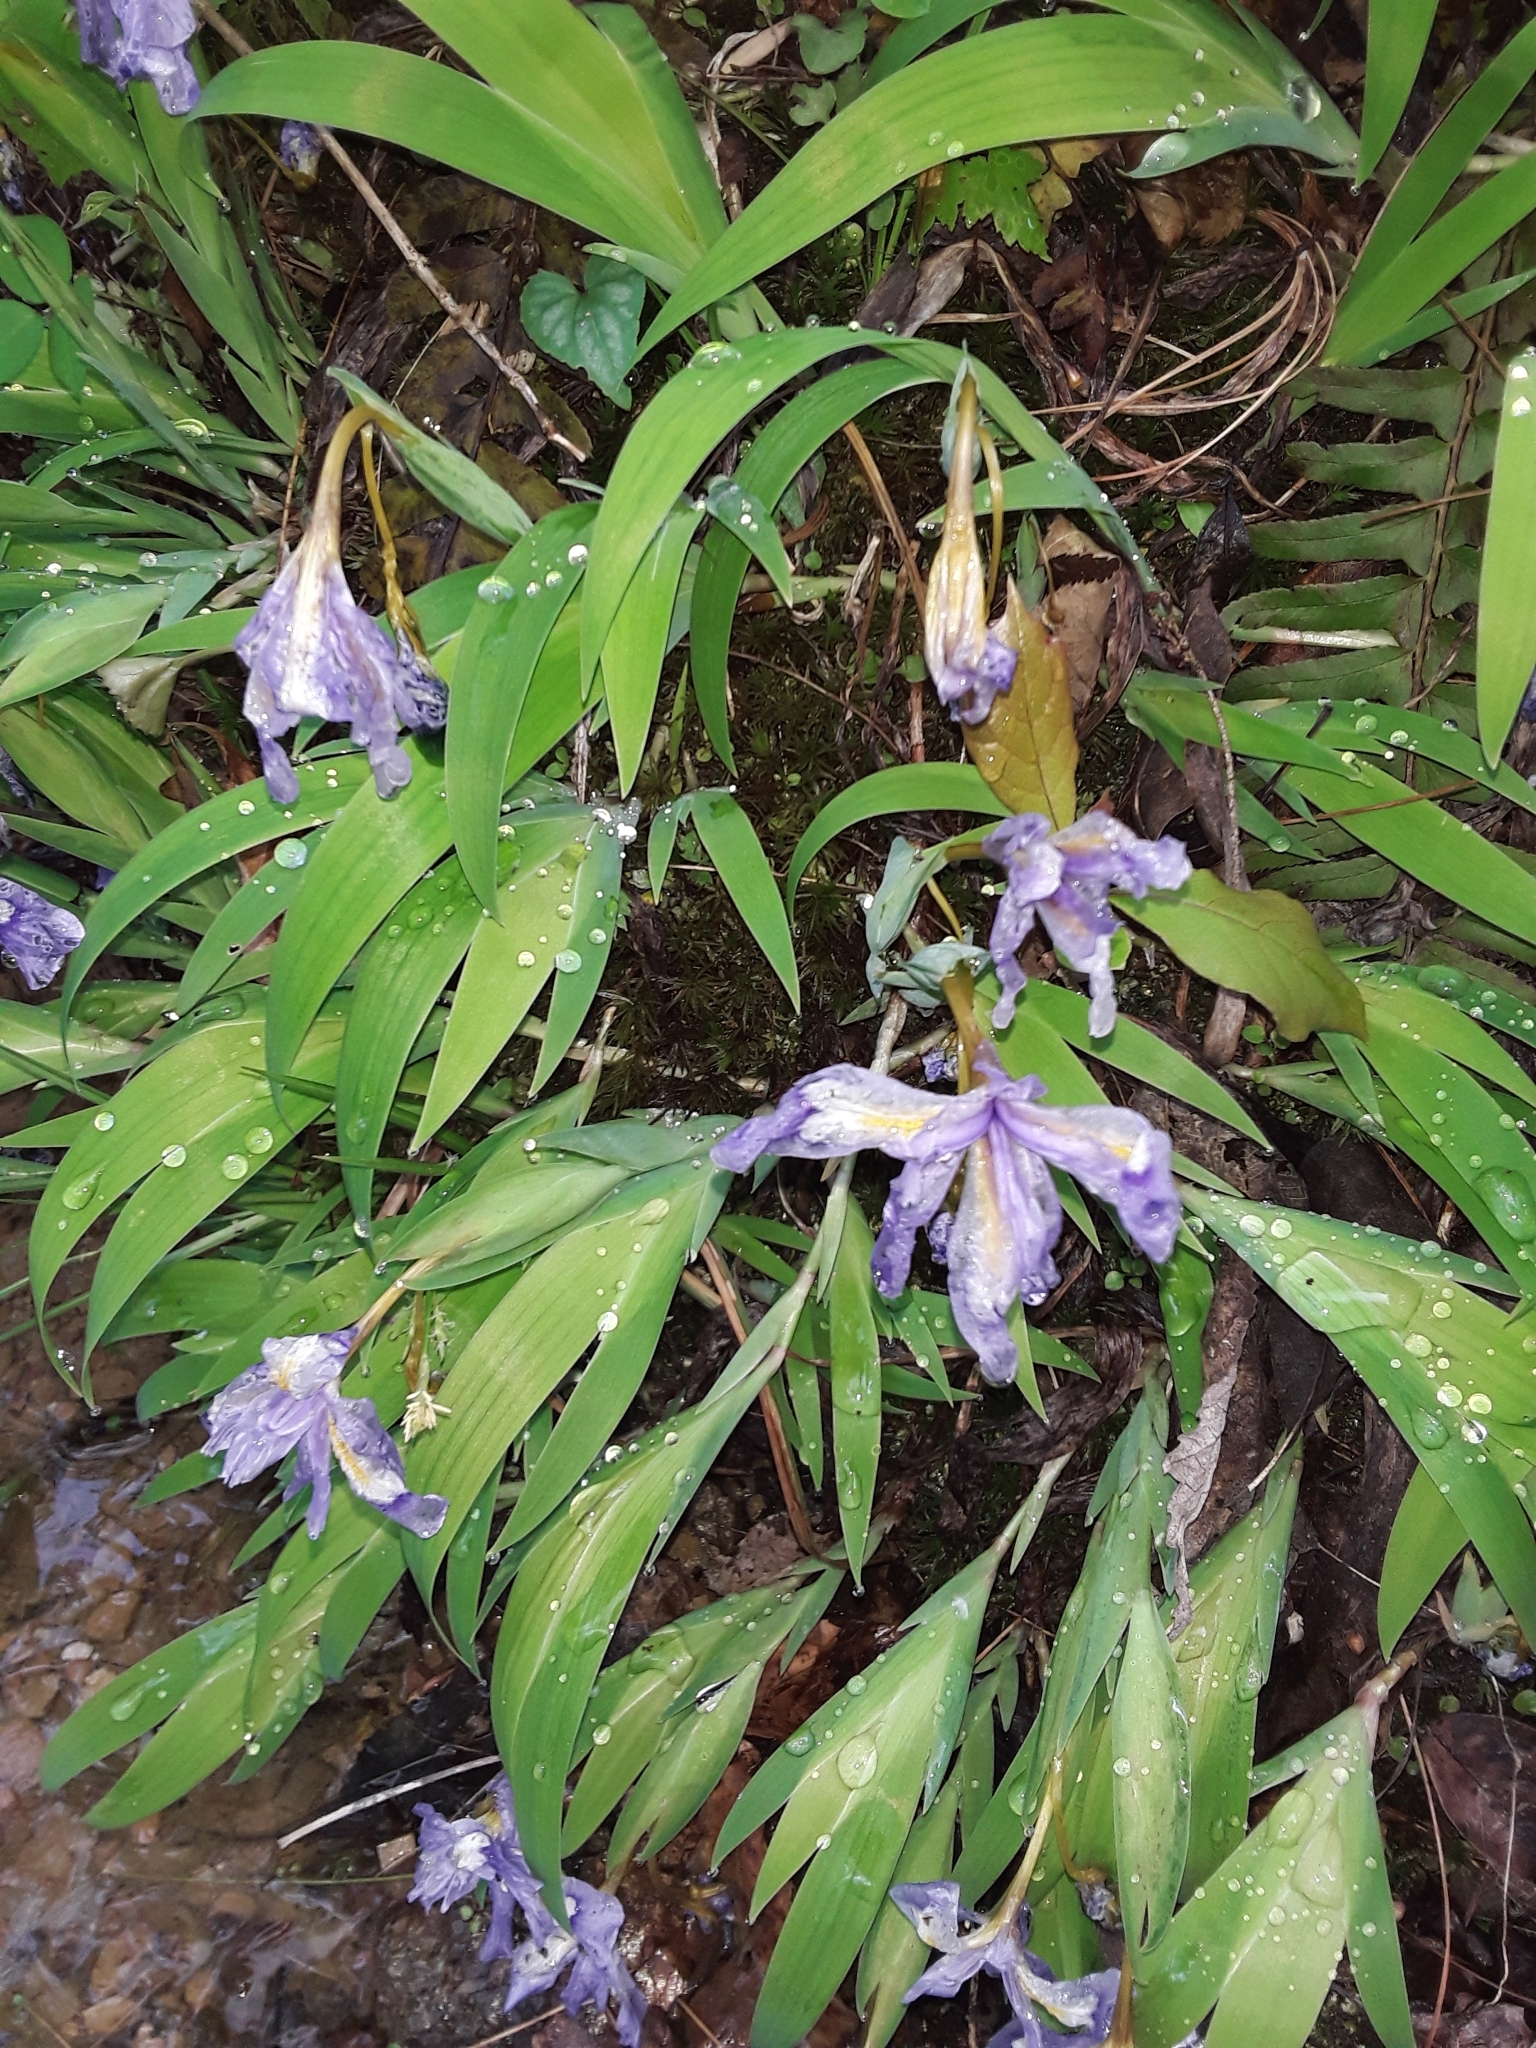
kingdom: Plantae
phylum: Tracheophyta
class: Liliopsida
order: Asparagales
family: Iridaceae
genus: Iris
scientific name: Iris cristata
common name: Crested iris
